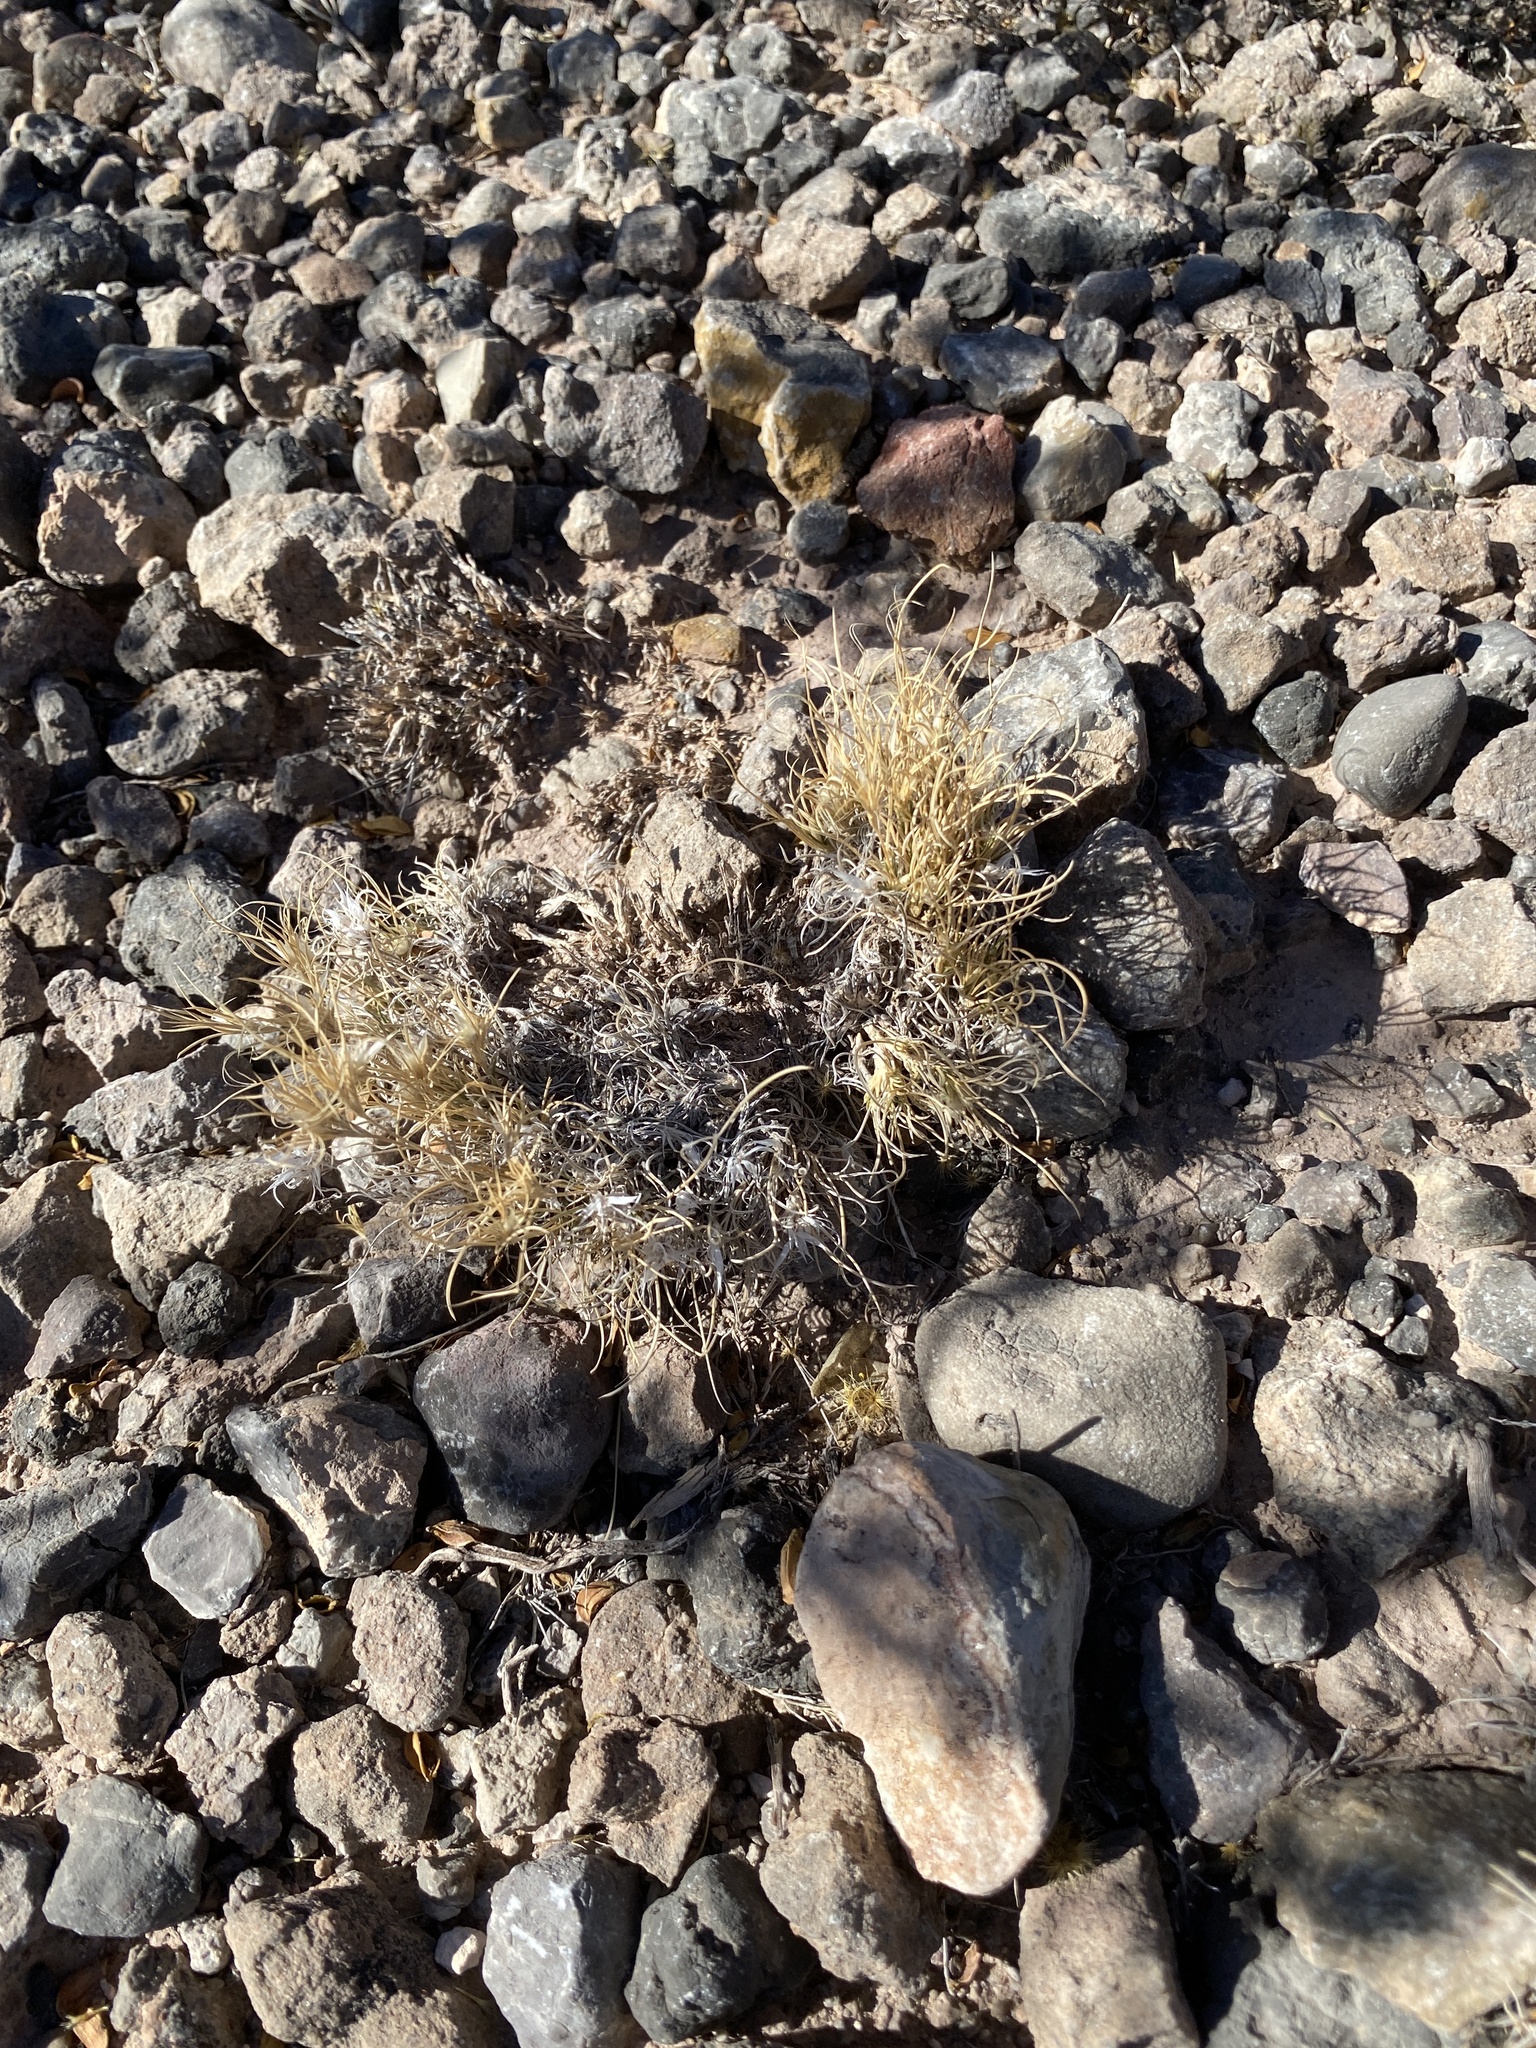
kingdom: Plantae
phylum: Tracheophyta
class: Liliopsida
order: Poales
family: Poaceae
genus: Dasyochloa
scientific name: Dasyochloa pulchella
